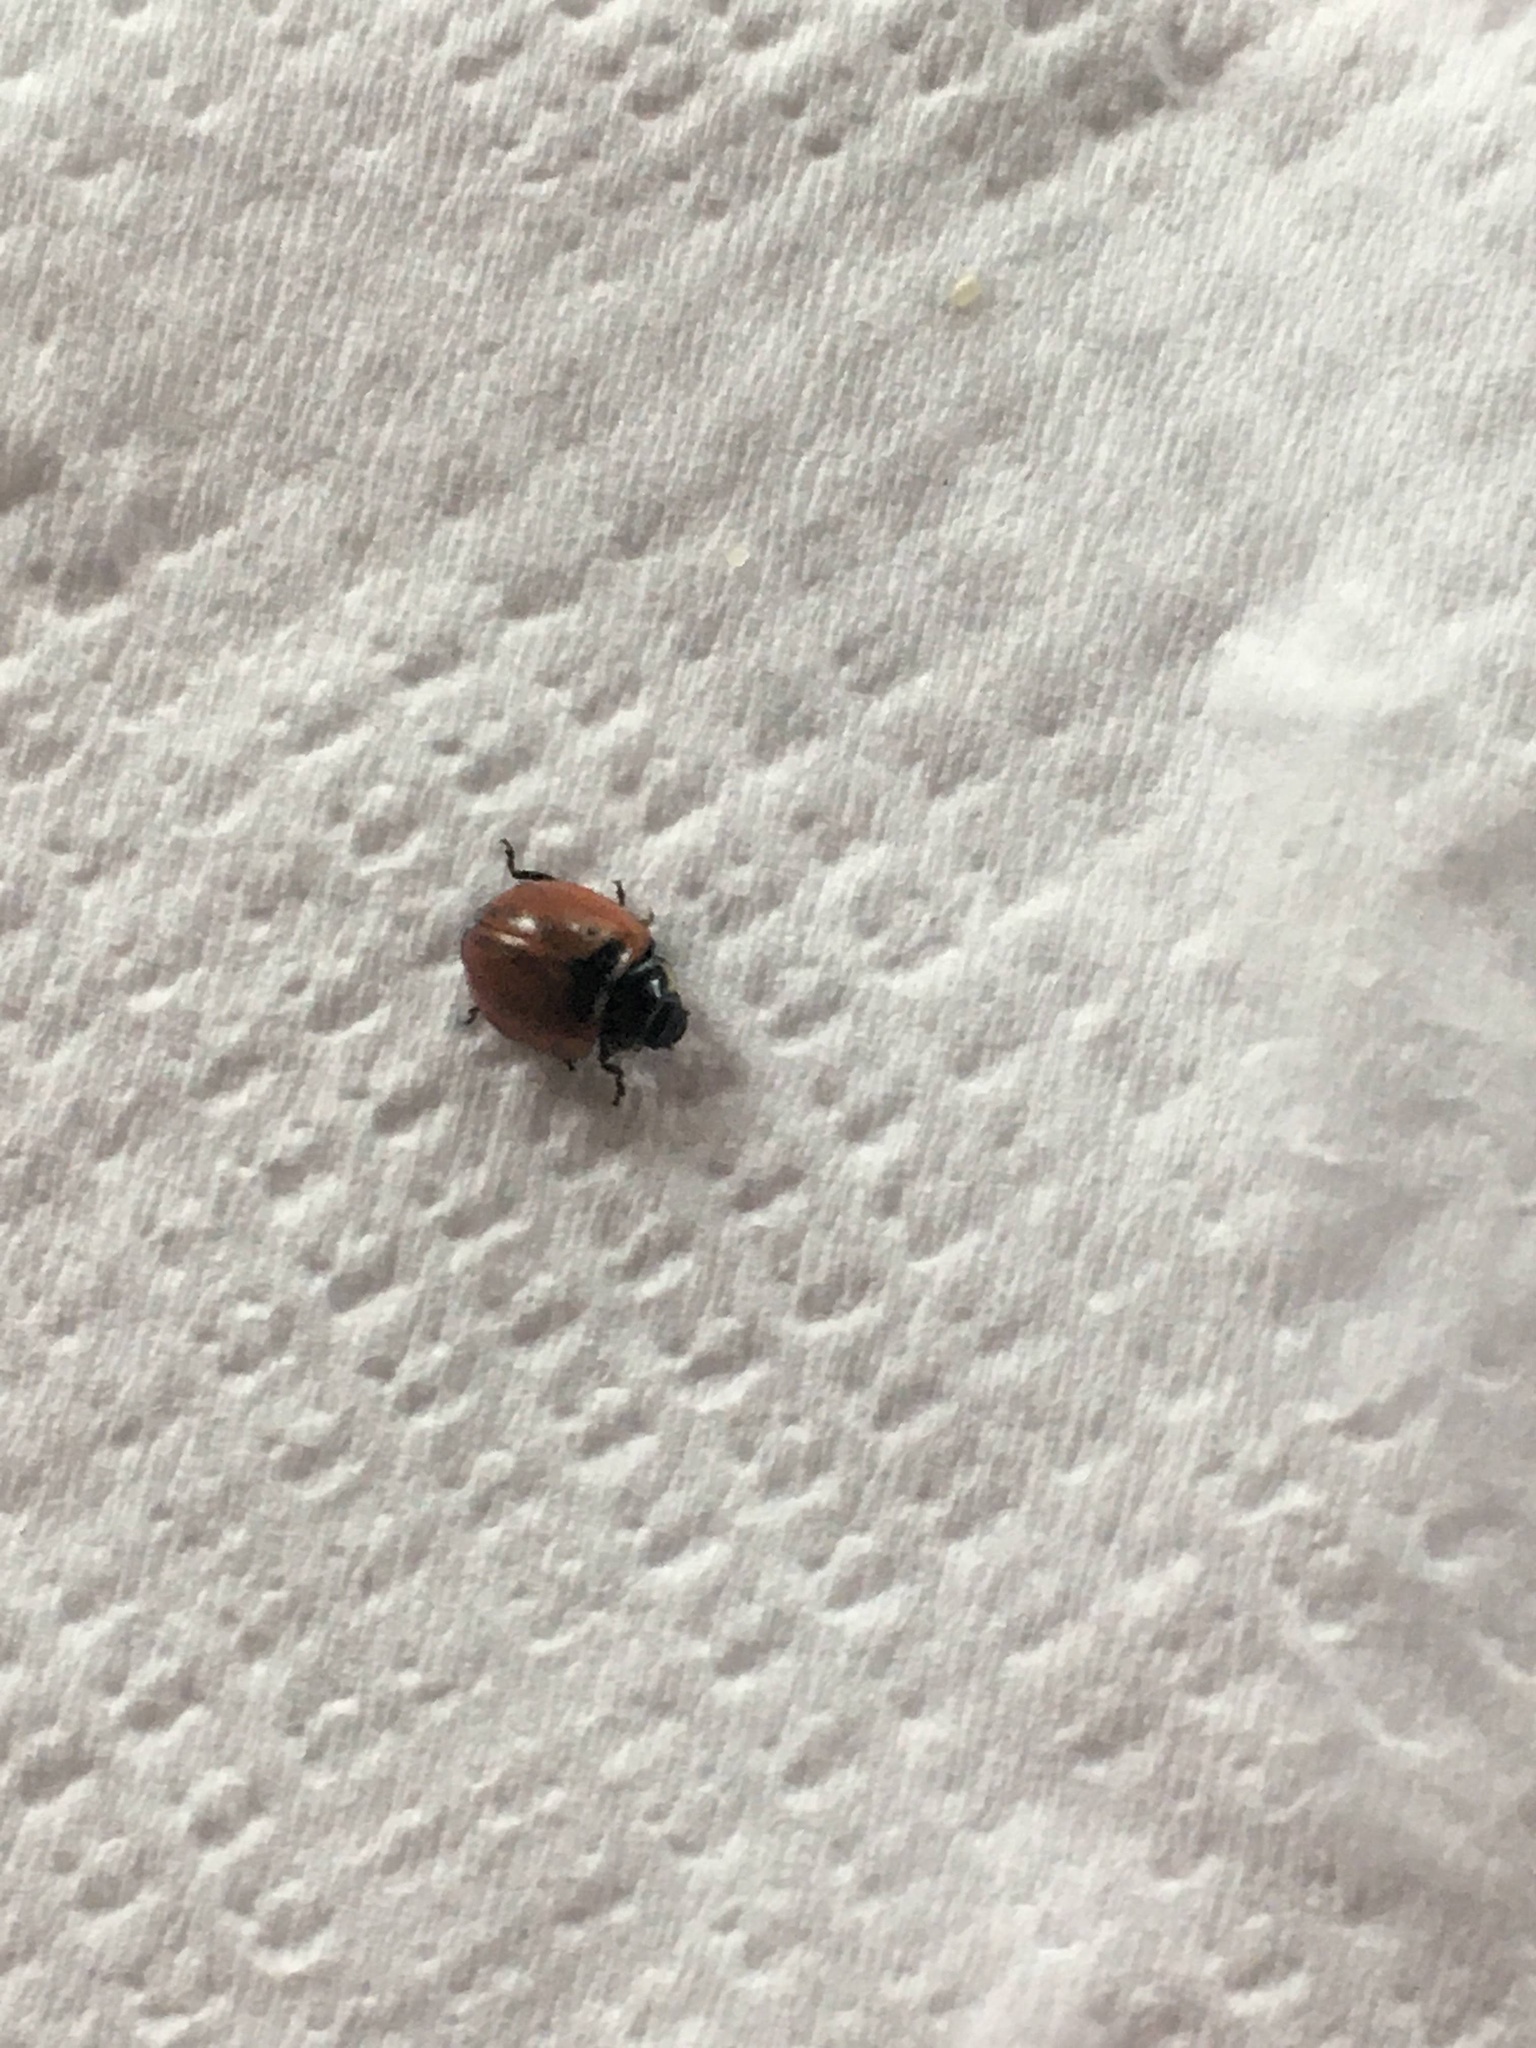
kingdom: Animalia
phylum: Arthropoda
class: Insecta
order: Coleoptera
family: Coccinellidae
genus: Adalia
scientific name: Adalia deficiens
